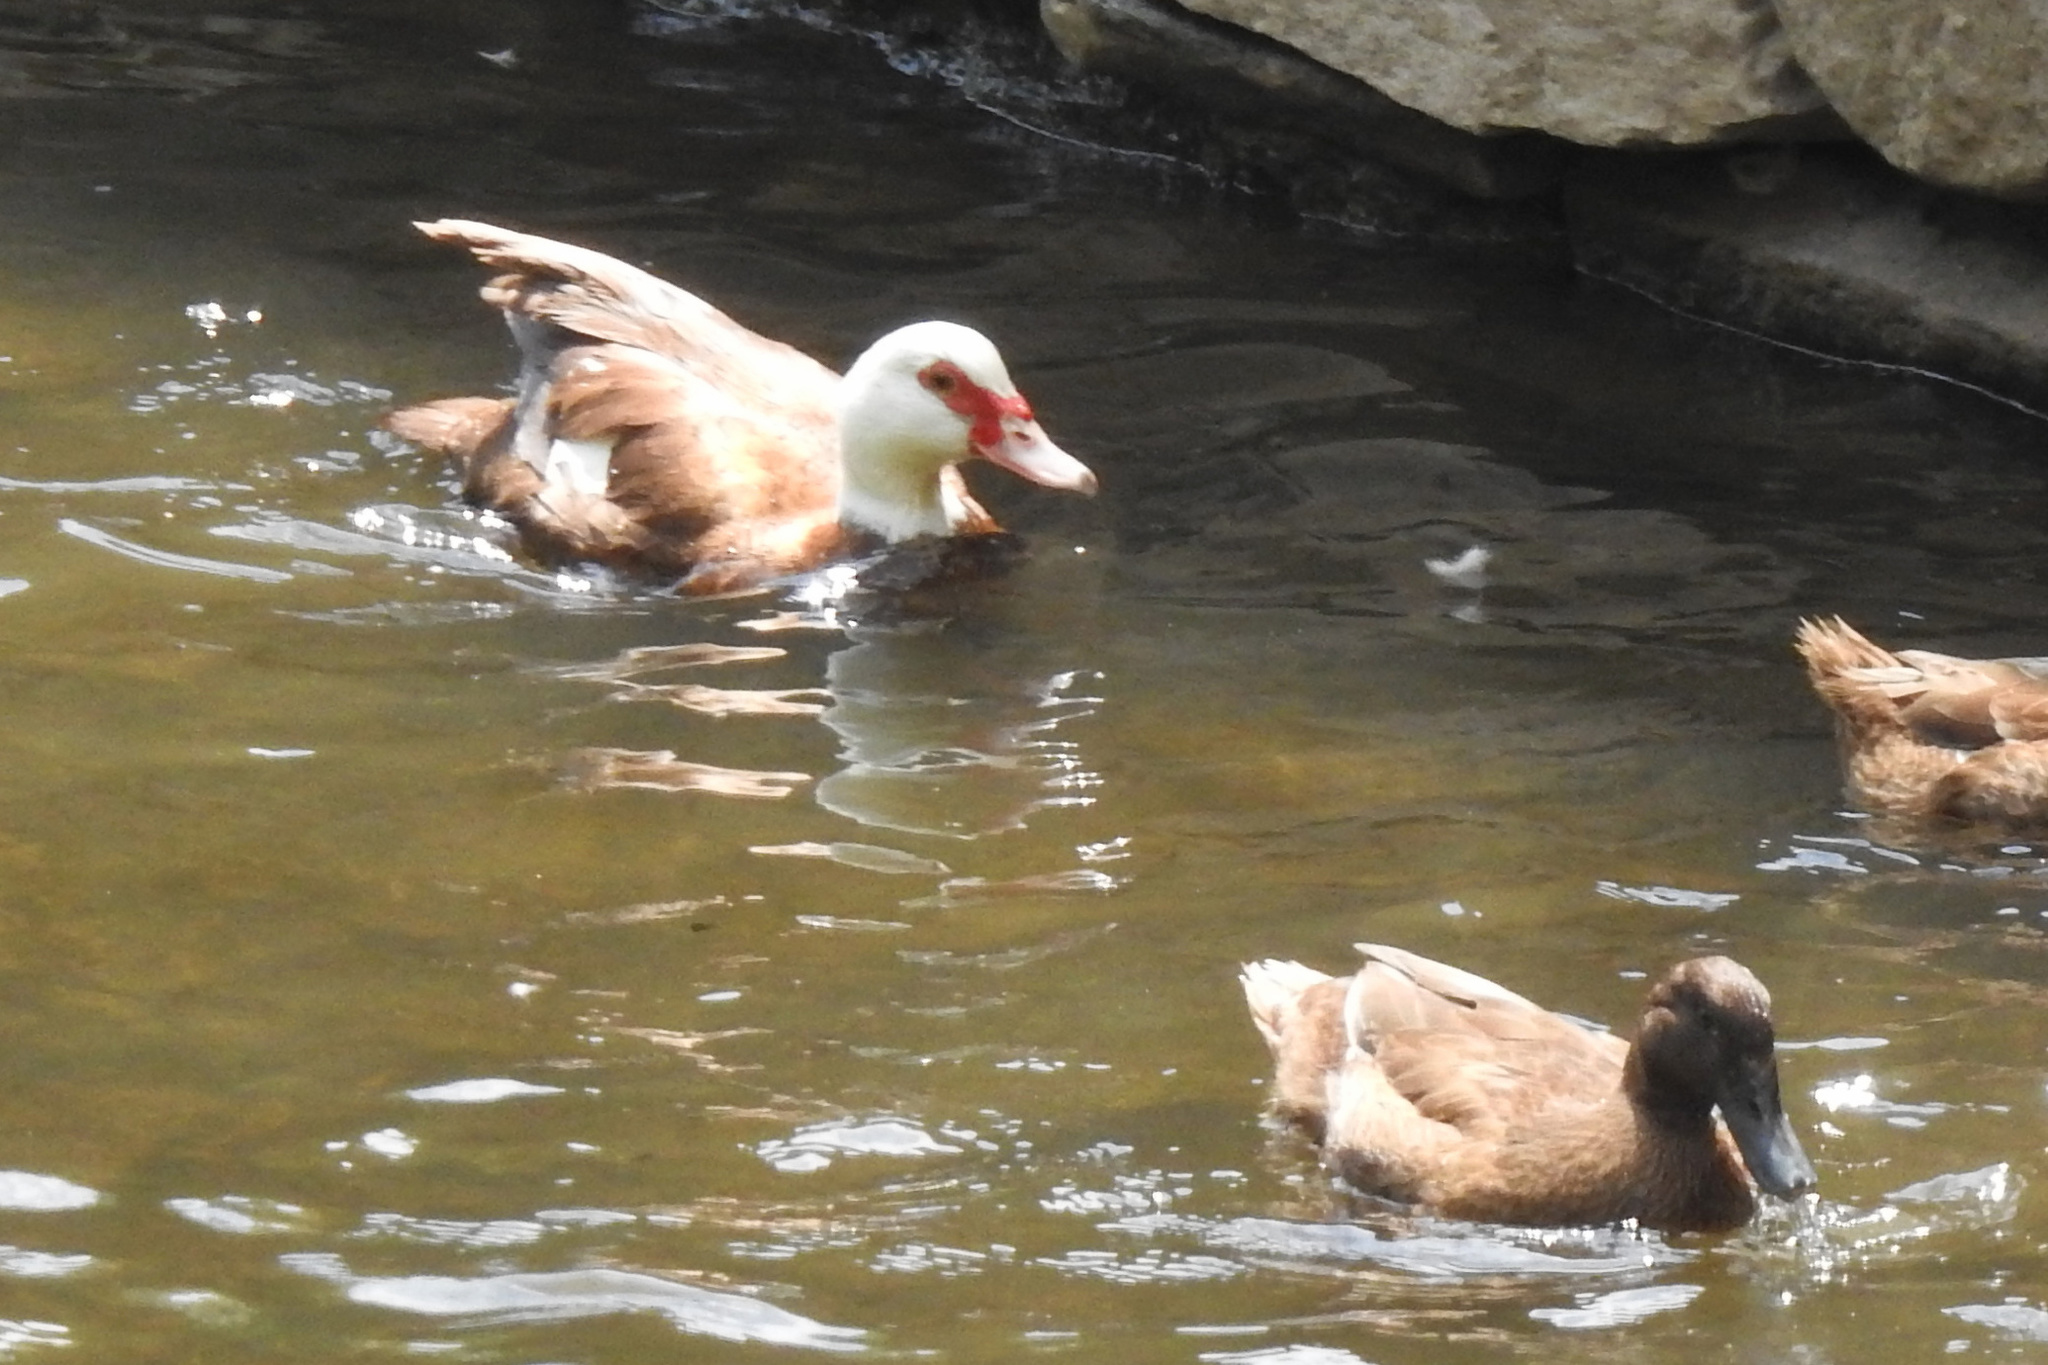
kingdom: Animalia
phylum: Chordata
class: Aves
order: Anseriformes
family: Anatidae
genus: Cairina
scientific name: Cairina moschata
